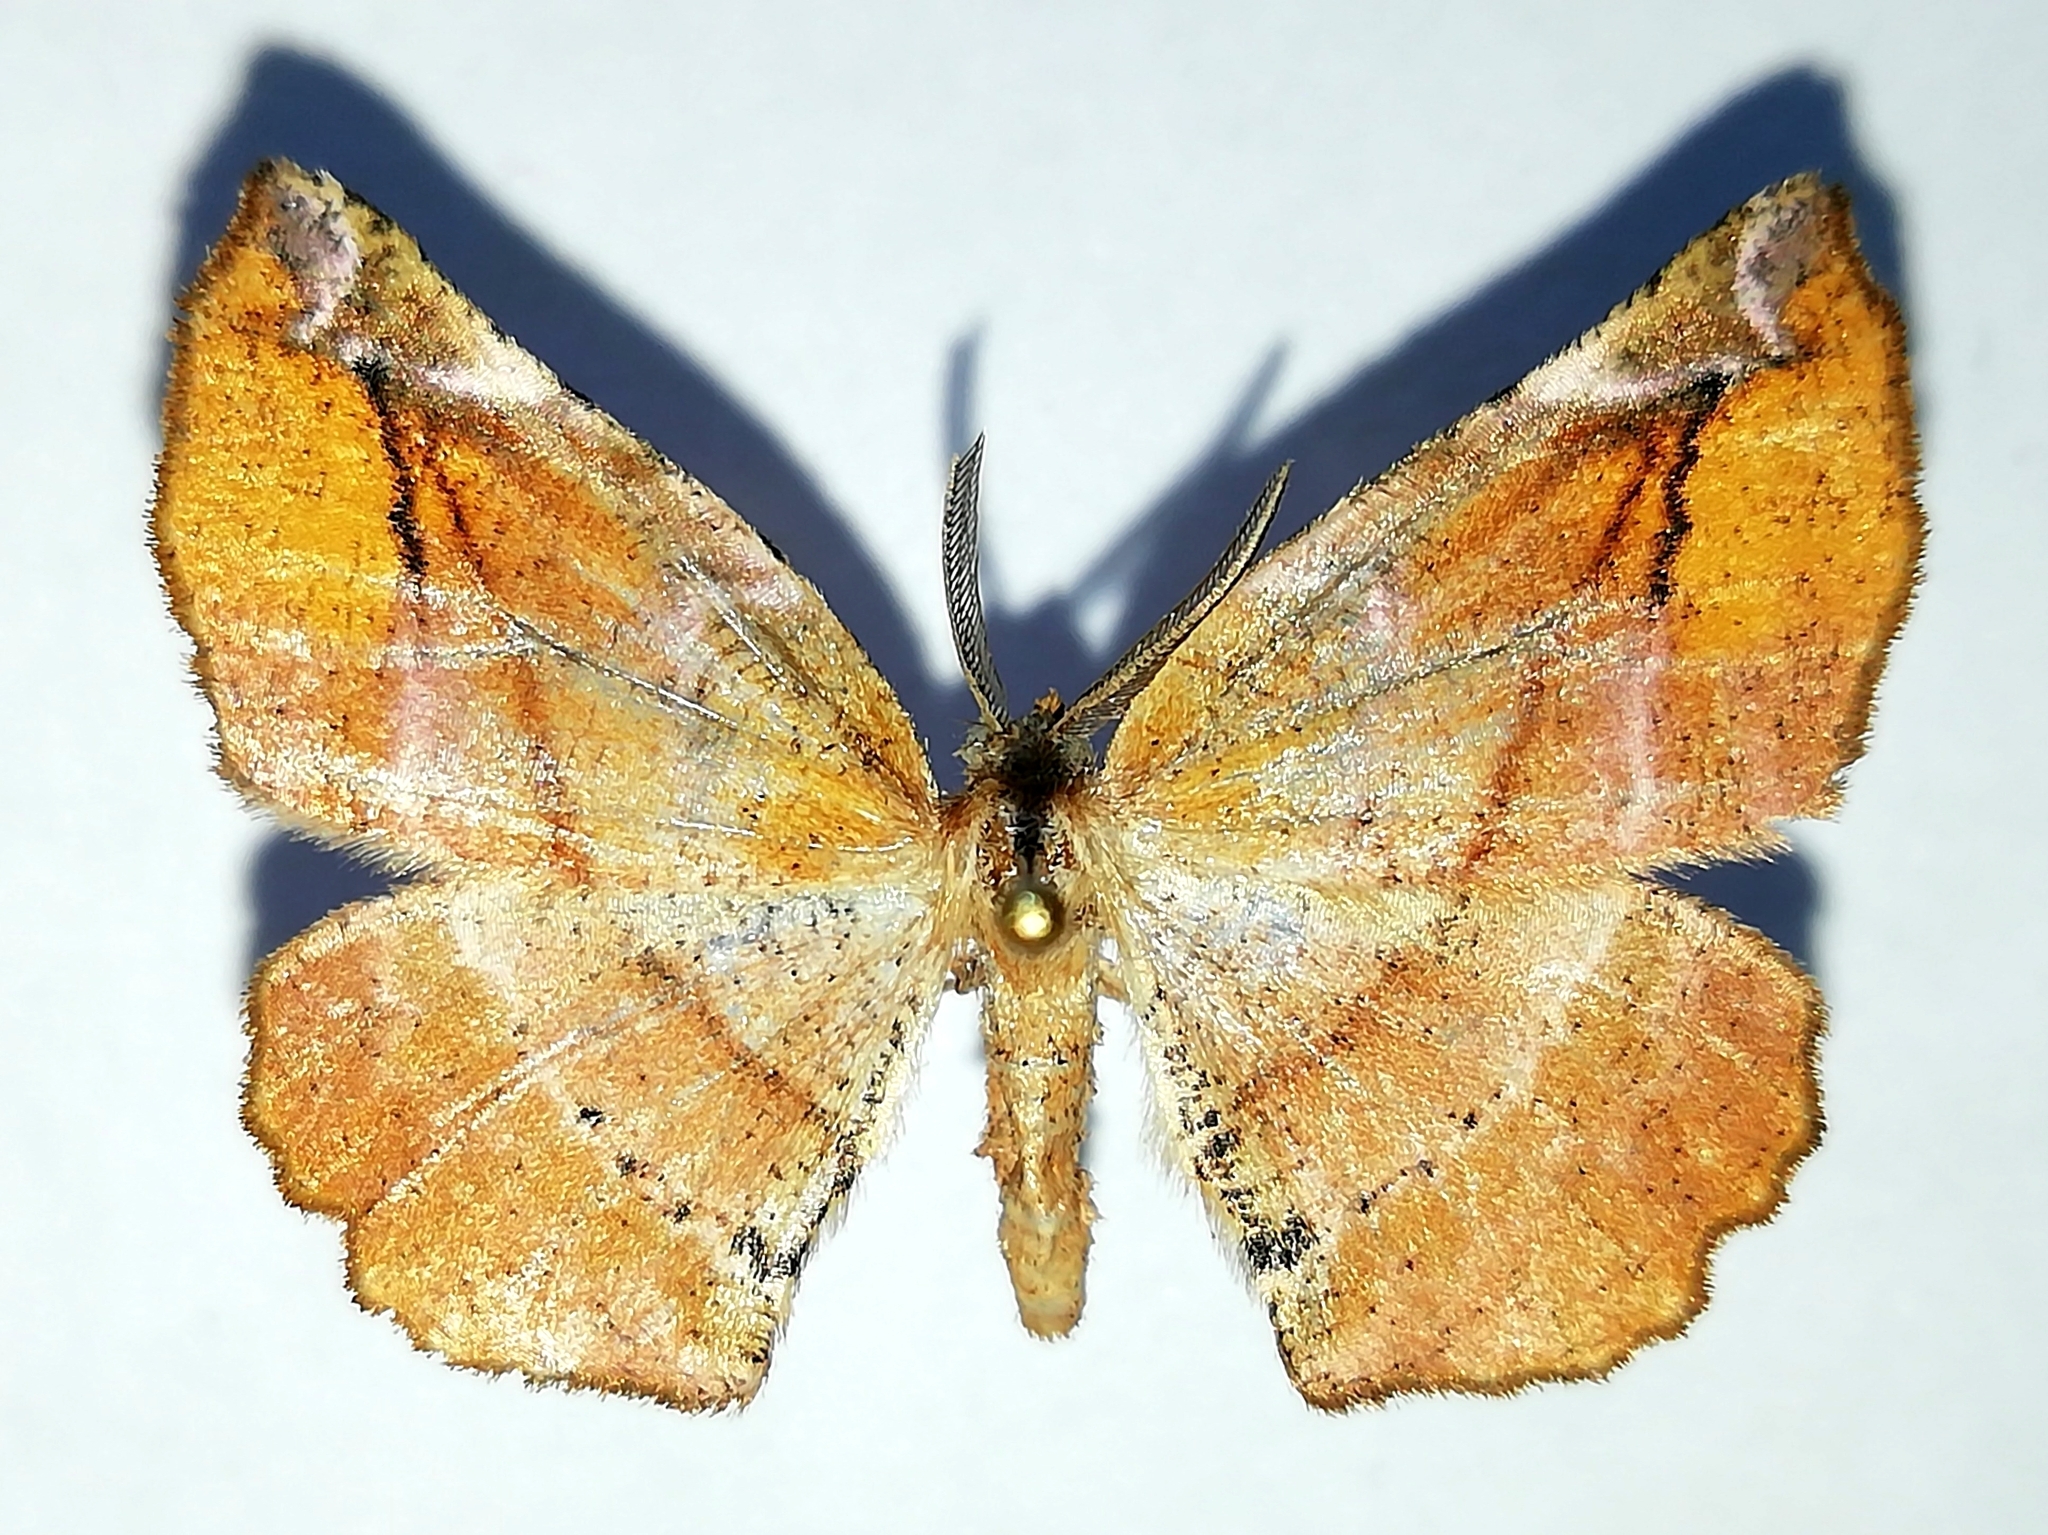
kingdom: Animalia
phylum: Arthropoda
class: Insecta
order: Lepidoptera
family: Geometridae
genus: Apeira
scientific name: Apeira syringaria
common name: Lilac beauty
